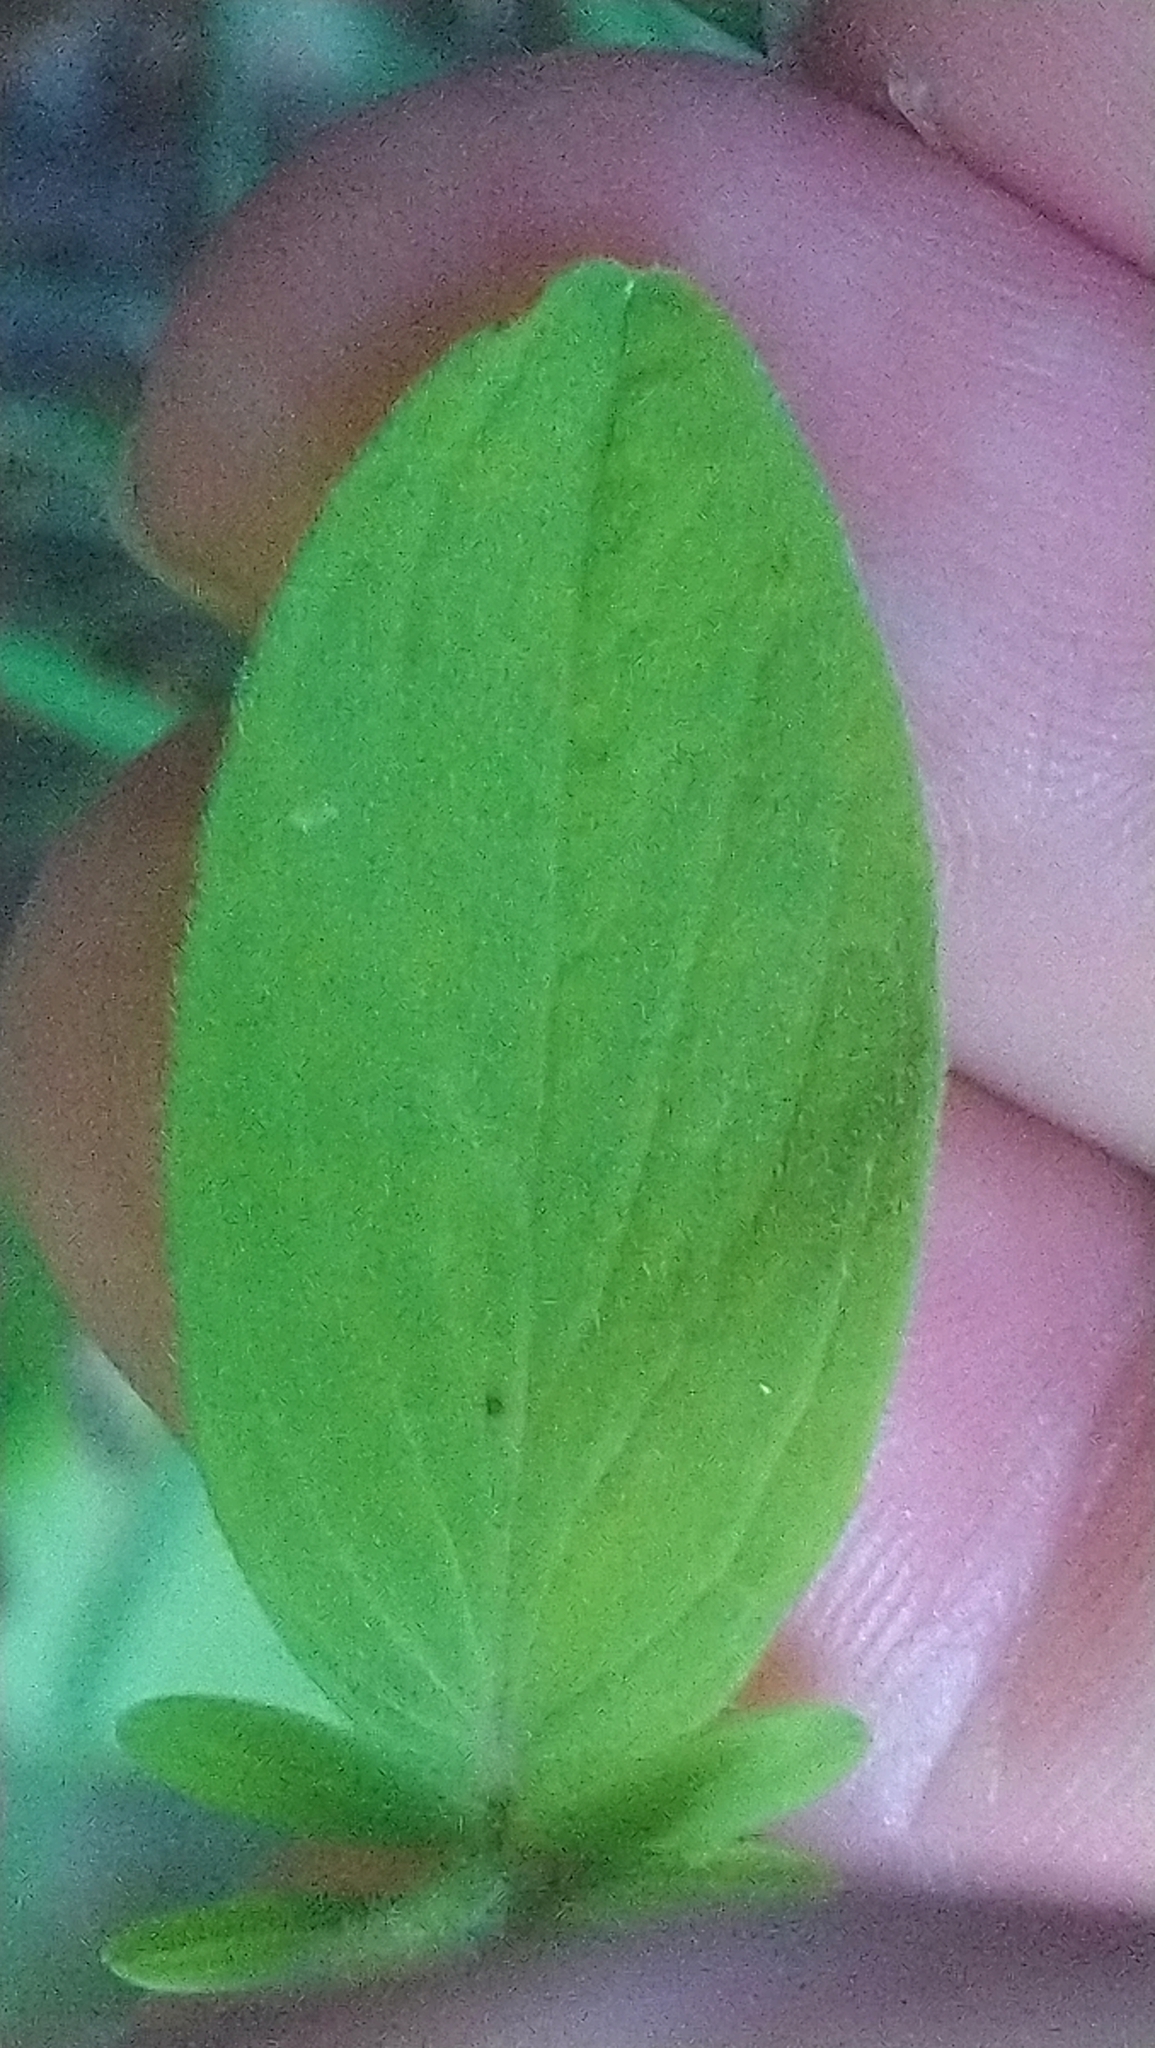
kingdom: Plantae
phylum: Tracheophyta
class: Magnoliopsida
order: Malpighiales
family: Hypericaceae
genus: Hypericum
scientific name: Hypericum hirsutum
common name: Hairy st. john's-wort
